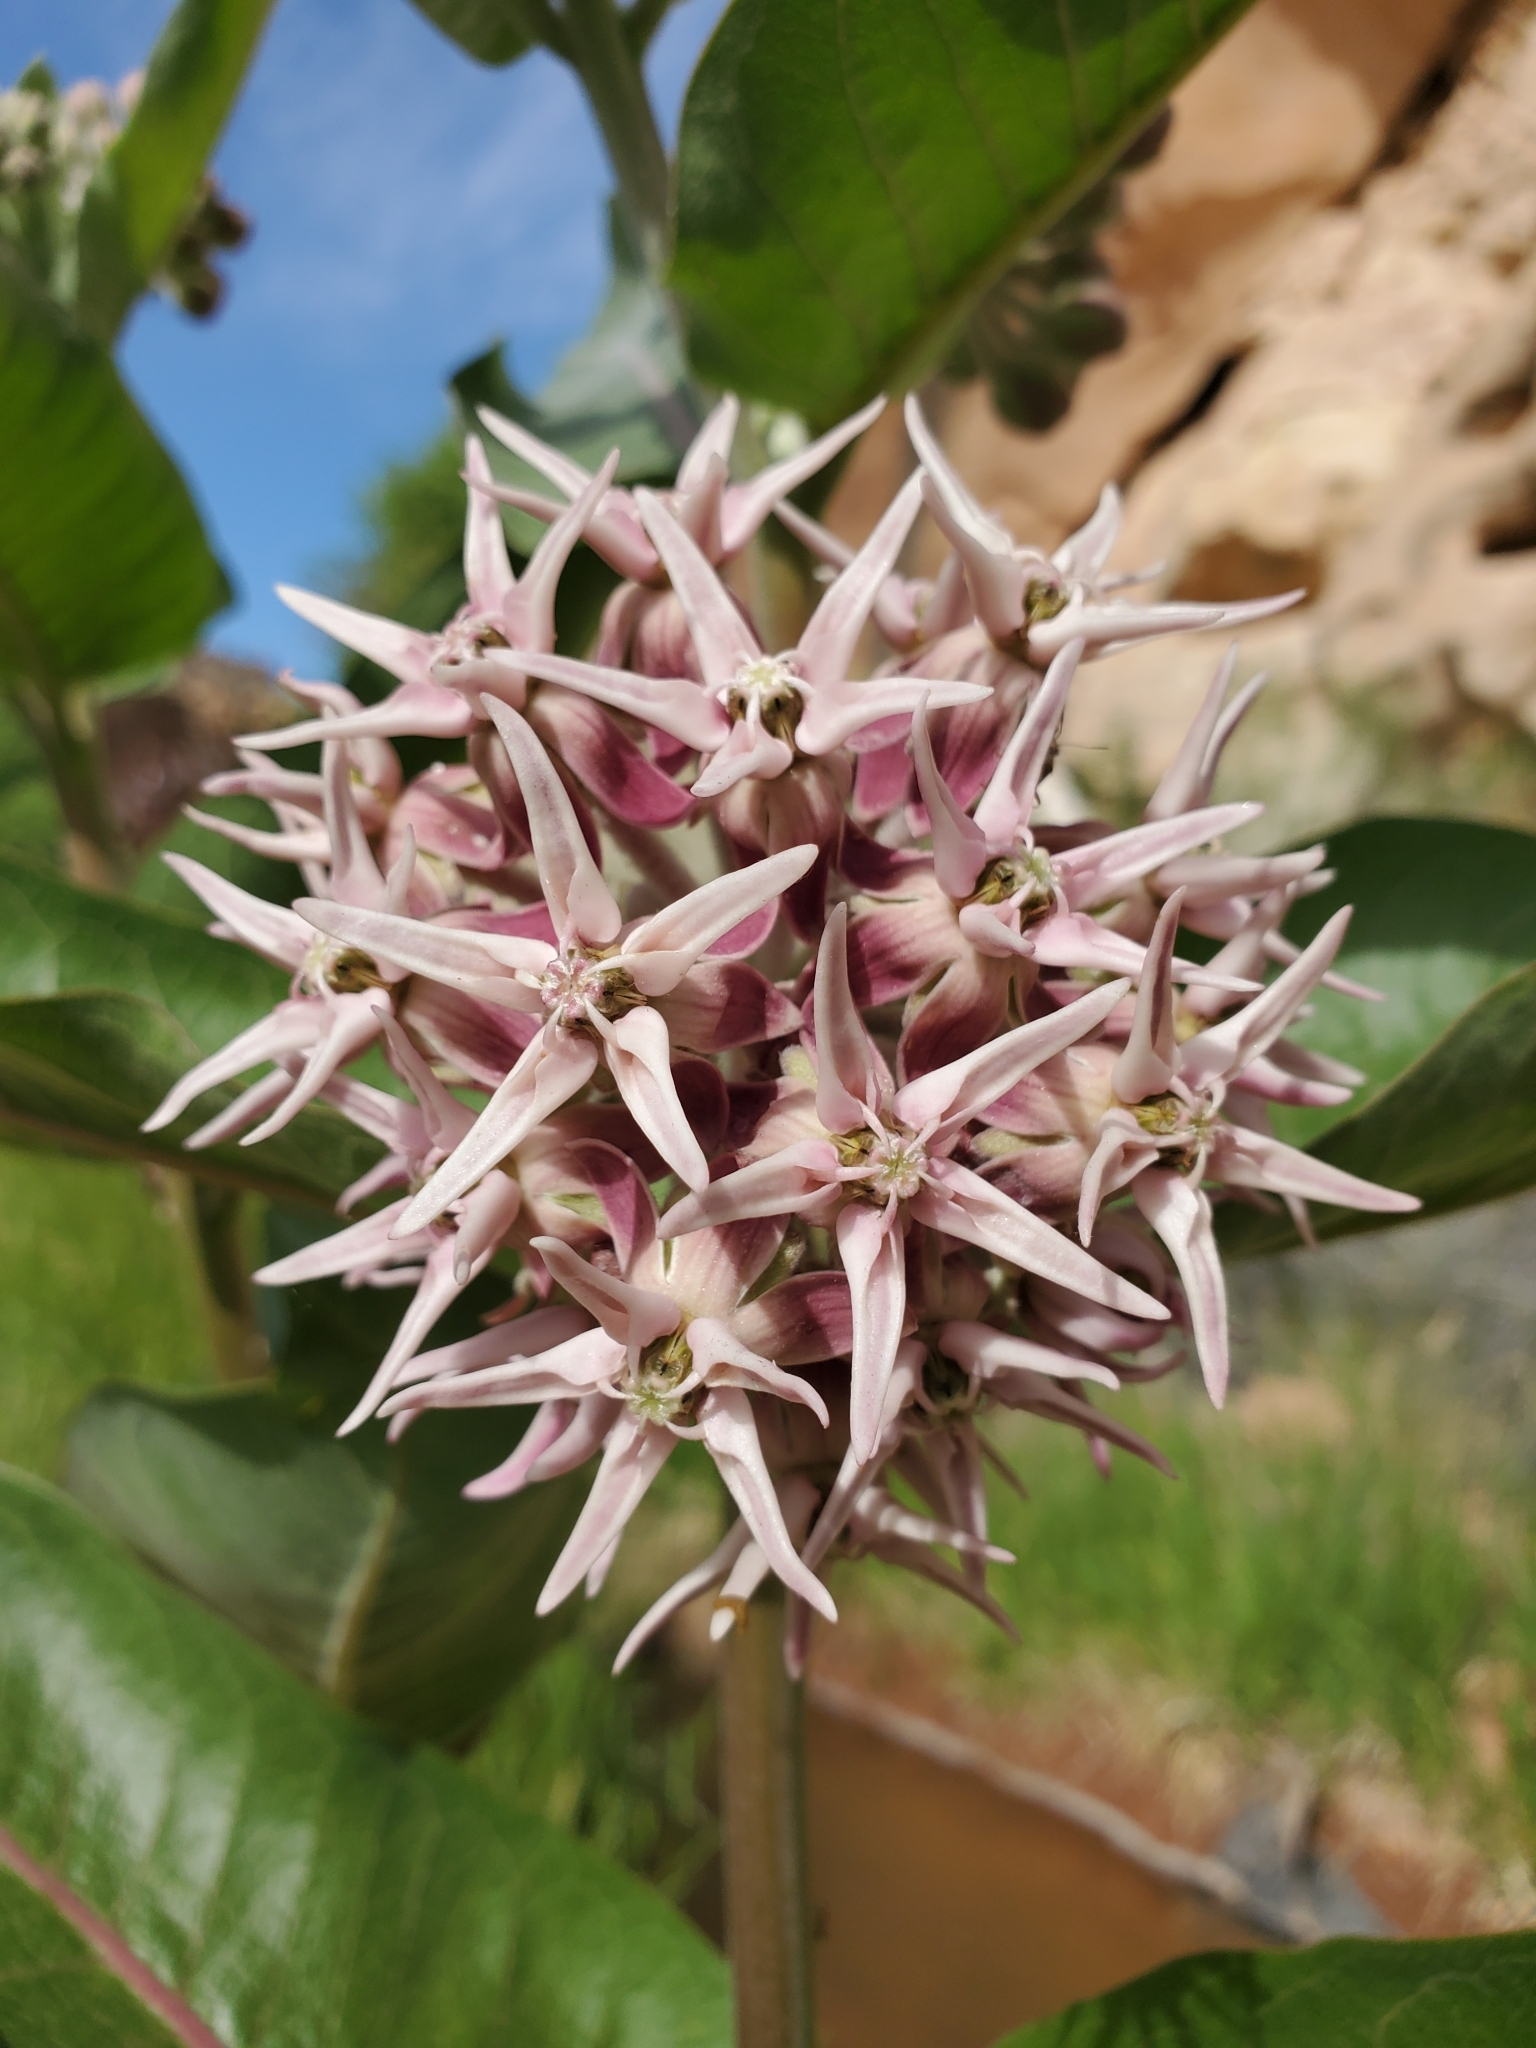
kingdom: Plantae
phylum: Tracheophyta
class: Magnoliopsida
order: Gentianales
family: Apocynaceae
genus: Asclepias
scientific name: Asclepias speciosa
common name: Showy milkweed
